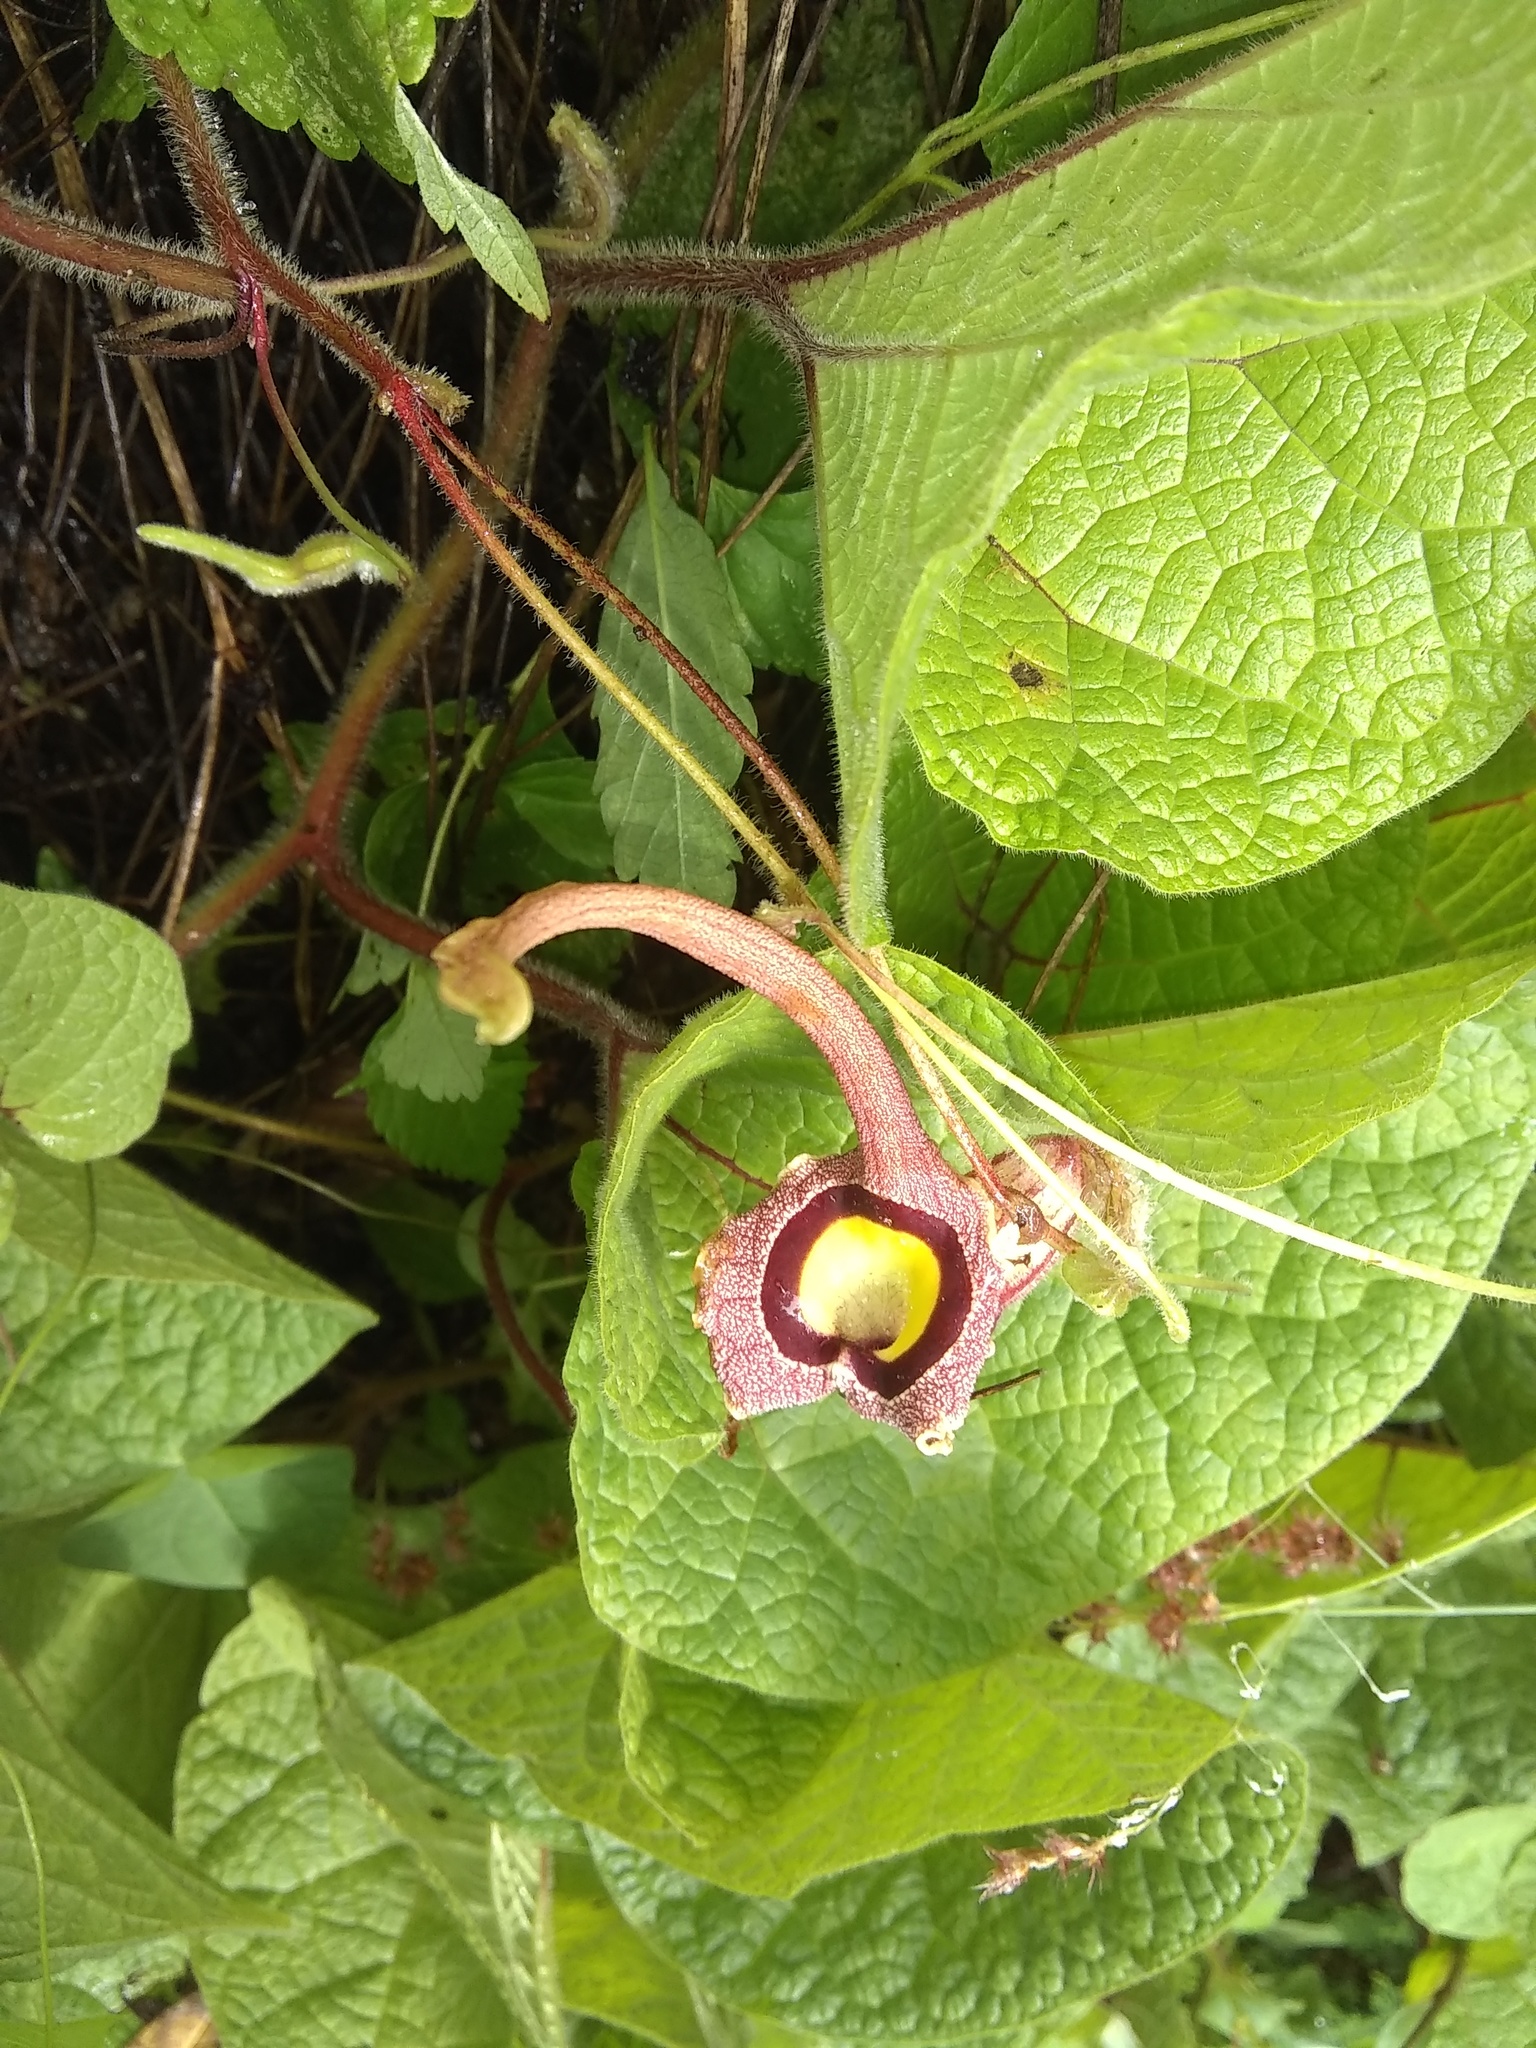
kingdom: Plantae
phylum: Tracheophyta
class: Magnoliopsida
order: Piperales
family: Aristolochiaceae
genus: Aristolochia
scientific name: Aristolochia foetida
